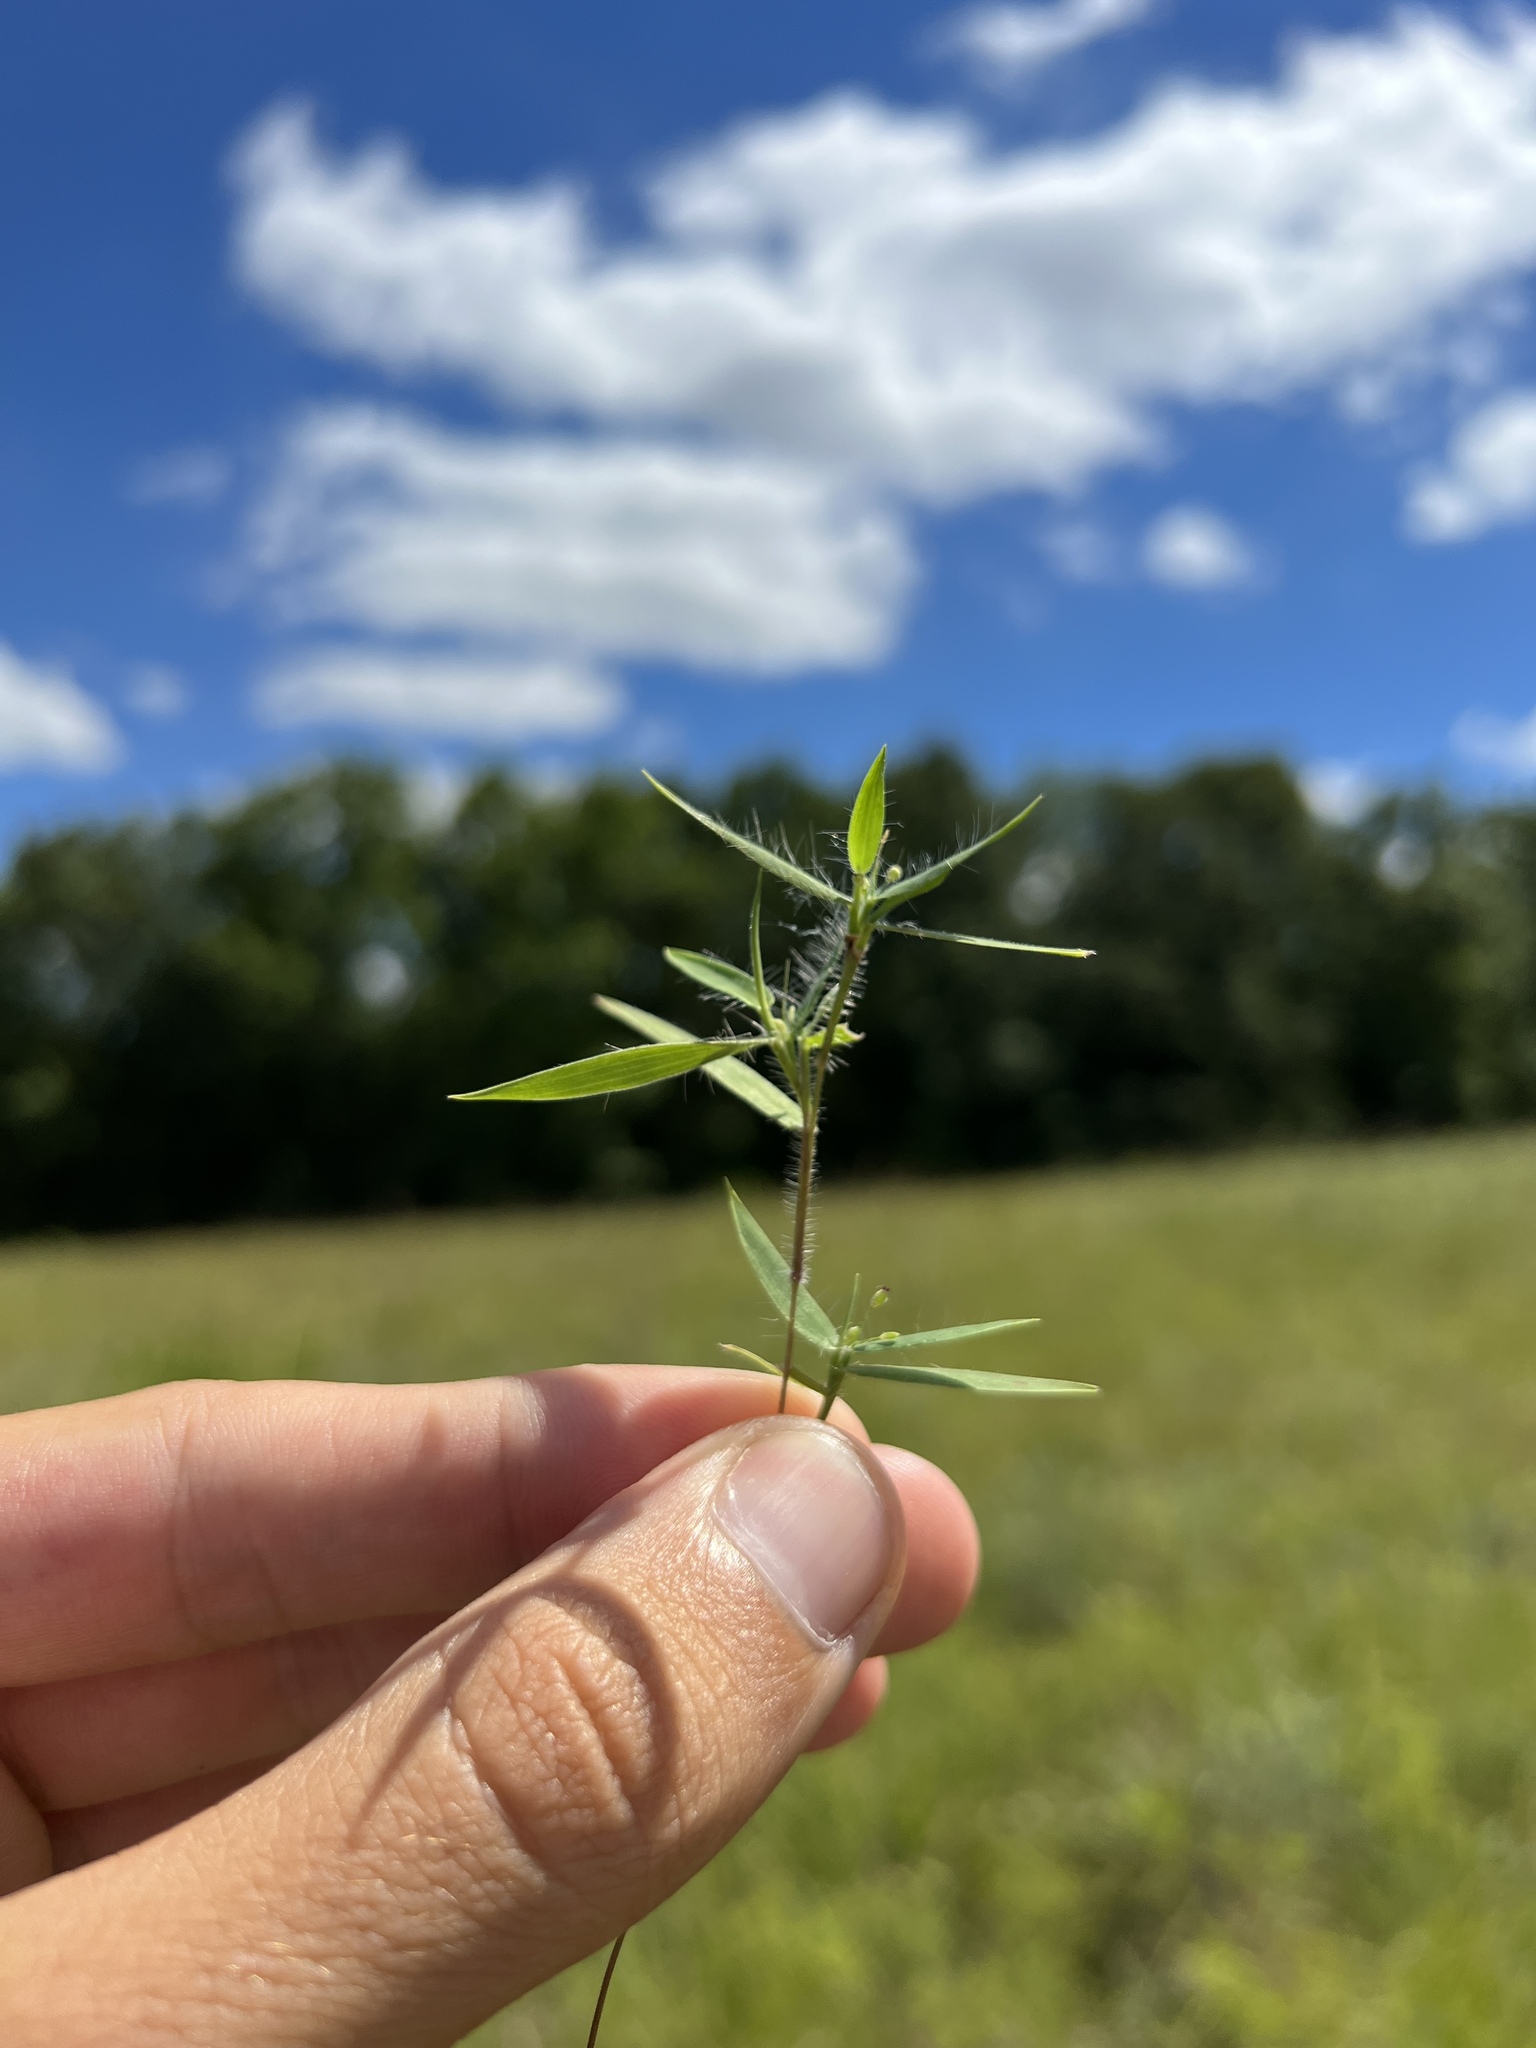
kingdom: Plantae
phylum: Tracheophyta
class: Liliopsida
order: Poales
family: Poaceae
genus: Dichanthelium
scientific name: Dichanthelium lanuginosum
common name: Woolly panicgrass
